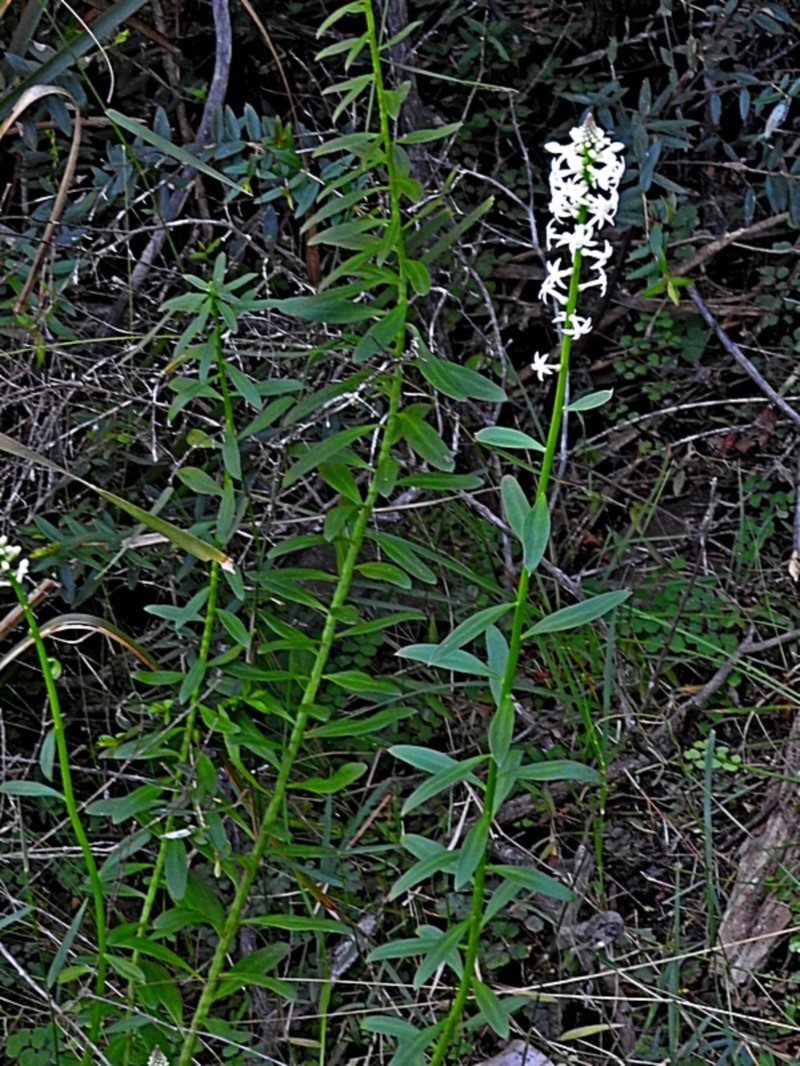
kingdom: Plantae
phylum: Tracheophyta
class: Magnoliopsida
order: Celastrales
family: Celastraceae
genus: Stackhousia
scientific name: Stackhousia monogyna
